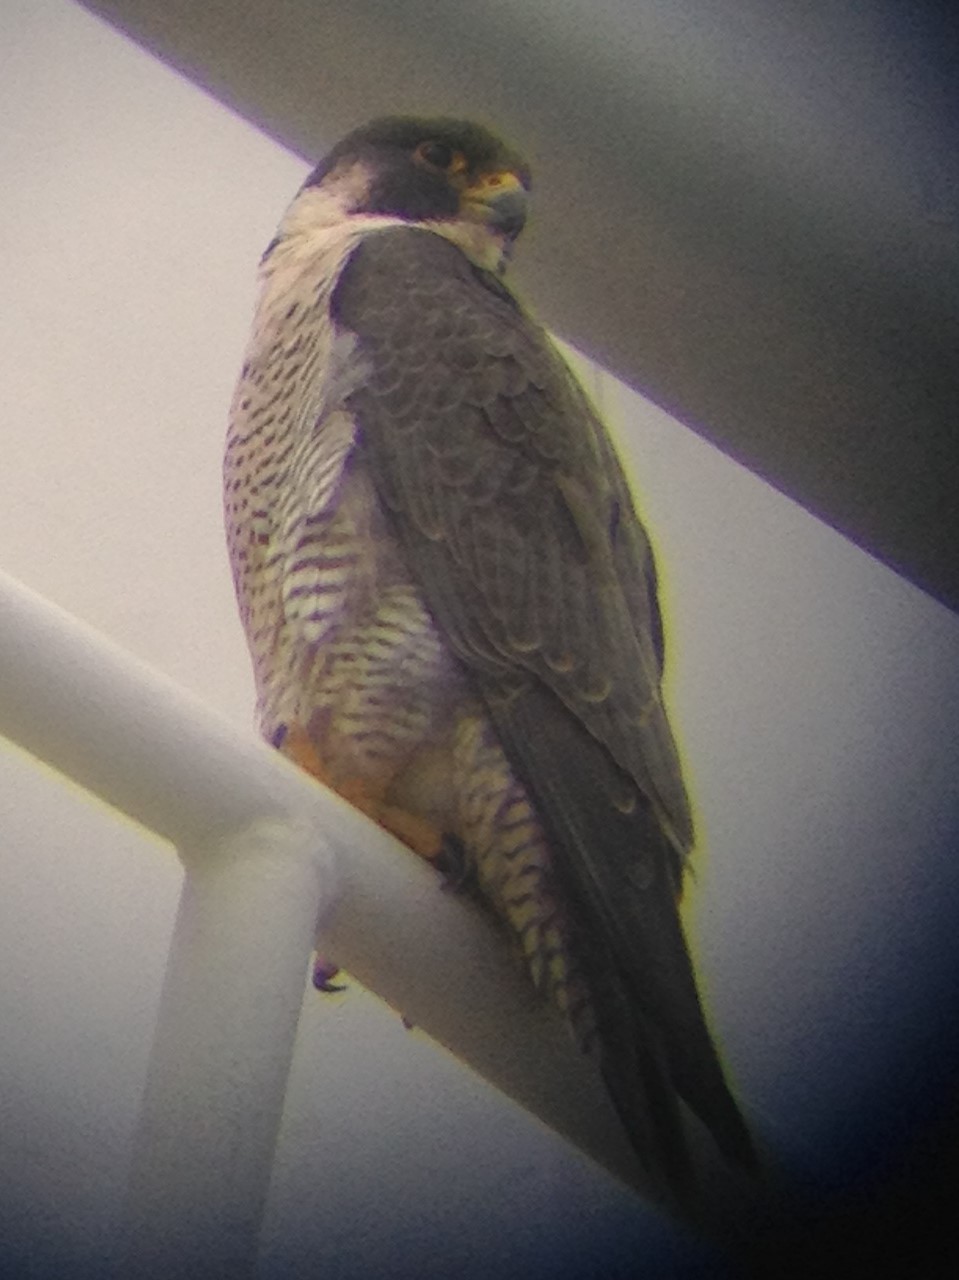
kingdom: Animalia
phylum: Chordata
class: Aves
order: Falconiformes
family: Falconidae
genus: Falco
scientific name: Falco peregrinus
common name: Peregrine falcon
